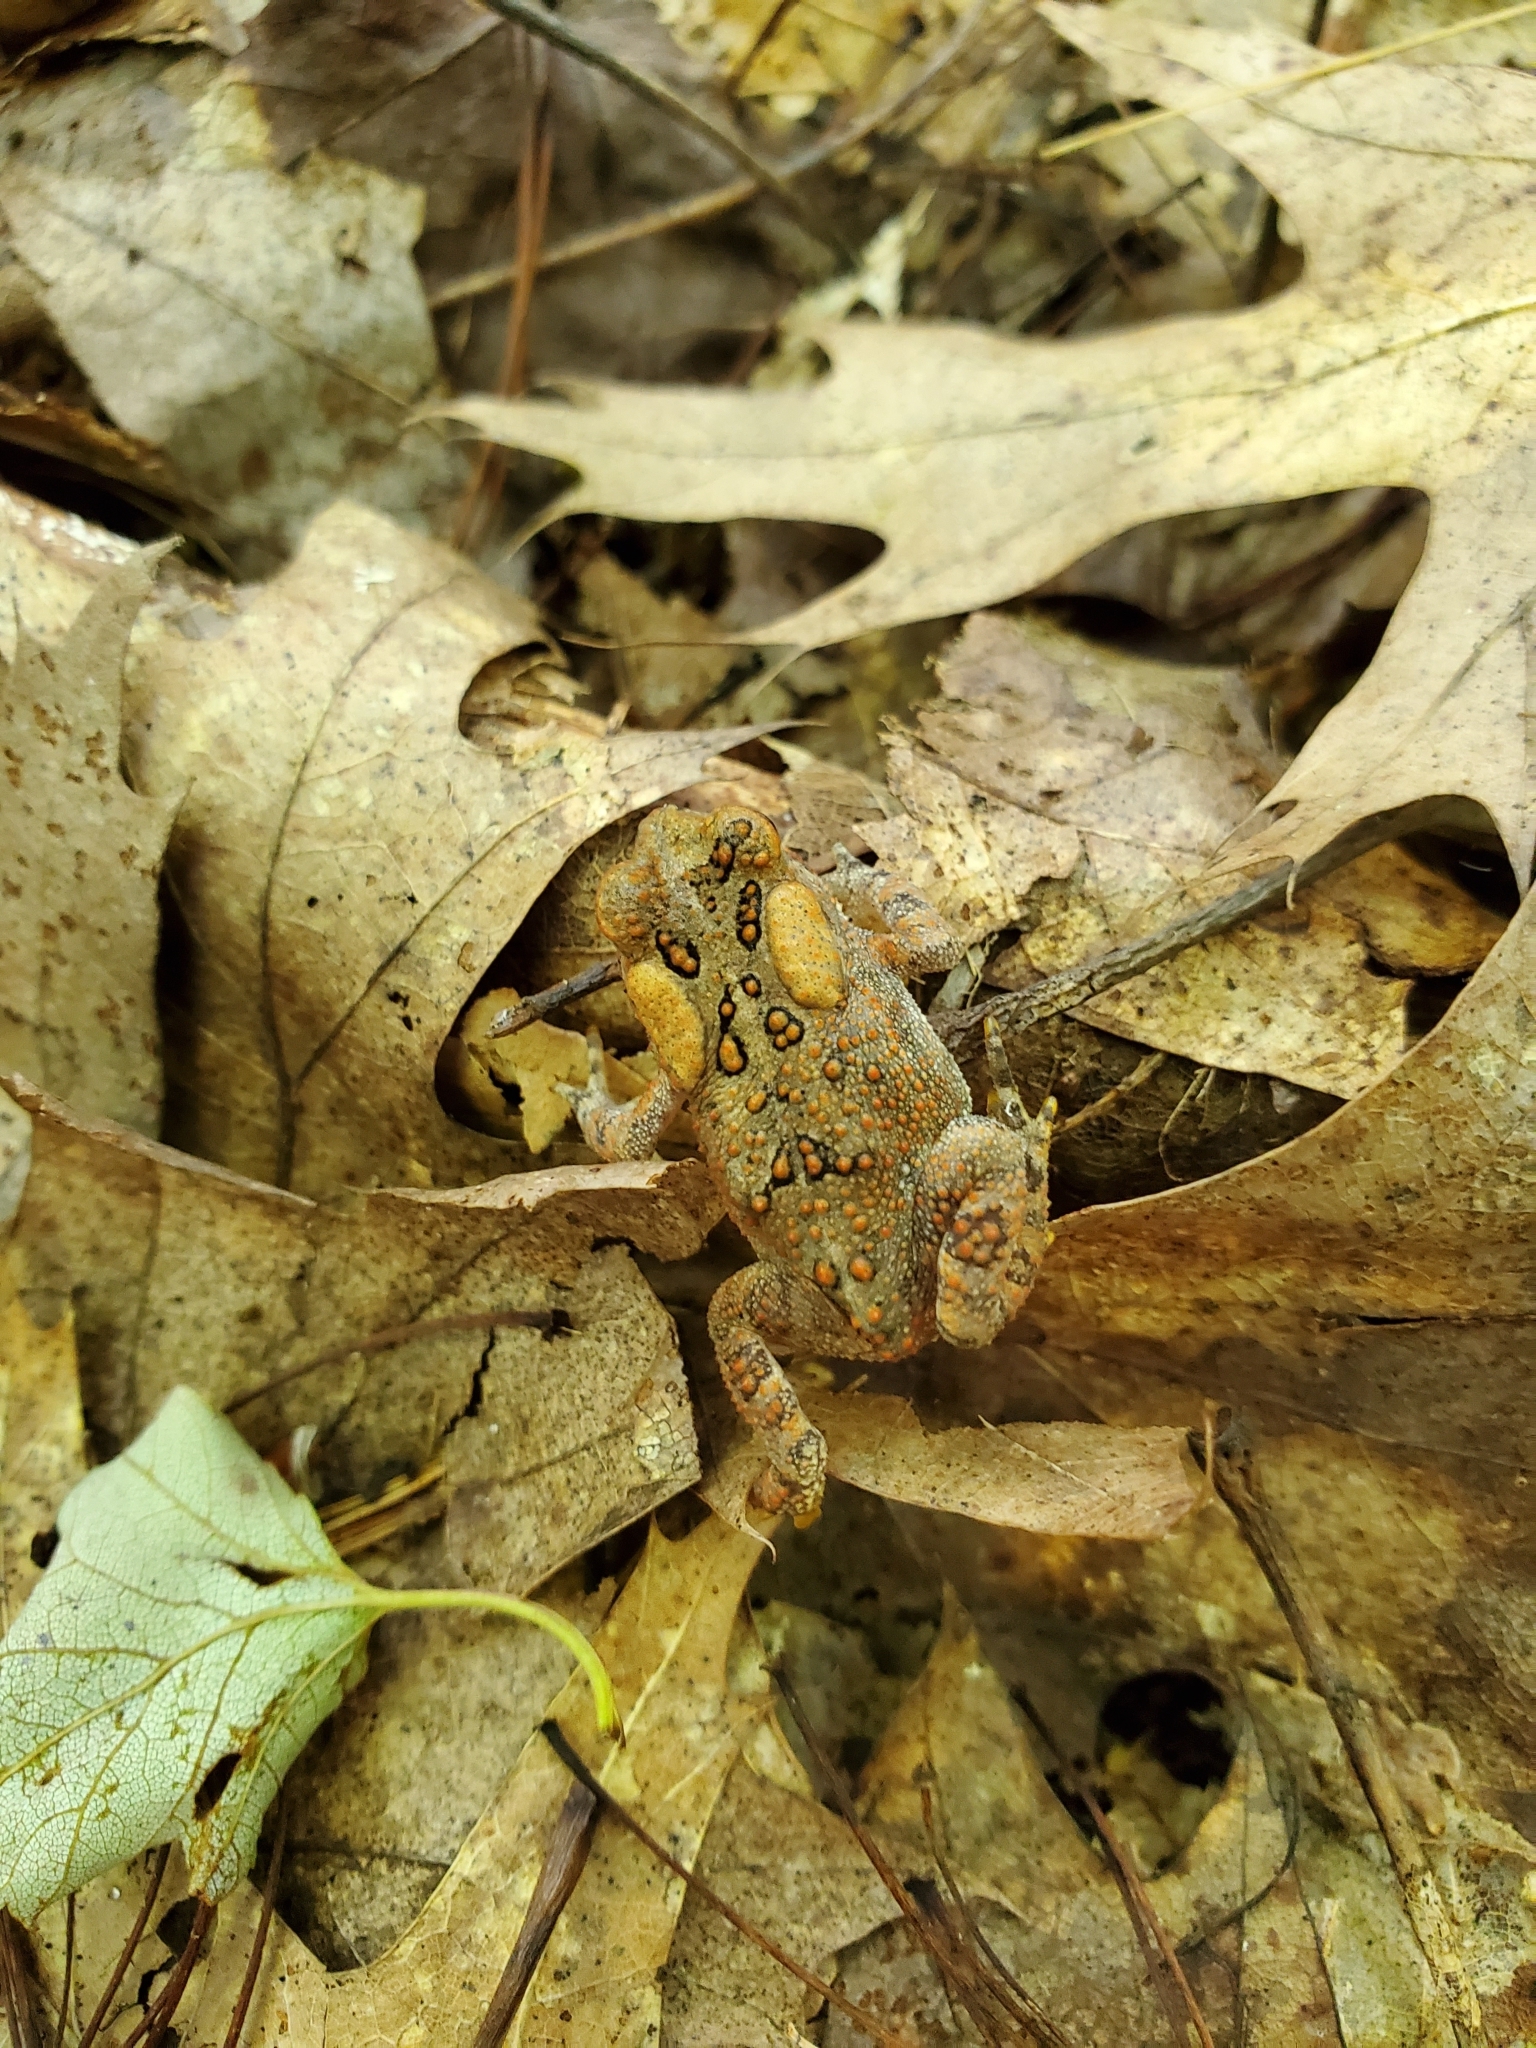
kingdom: Animalia
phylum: Chordata
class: Amphibia
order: Anura
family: Bufonidae
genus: Anaxyrus
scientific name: Anaxyrus americanus
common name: American toad
